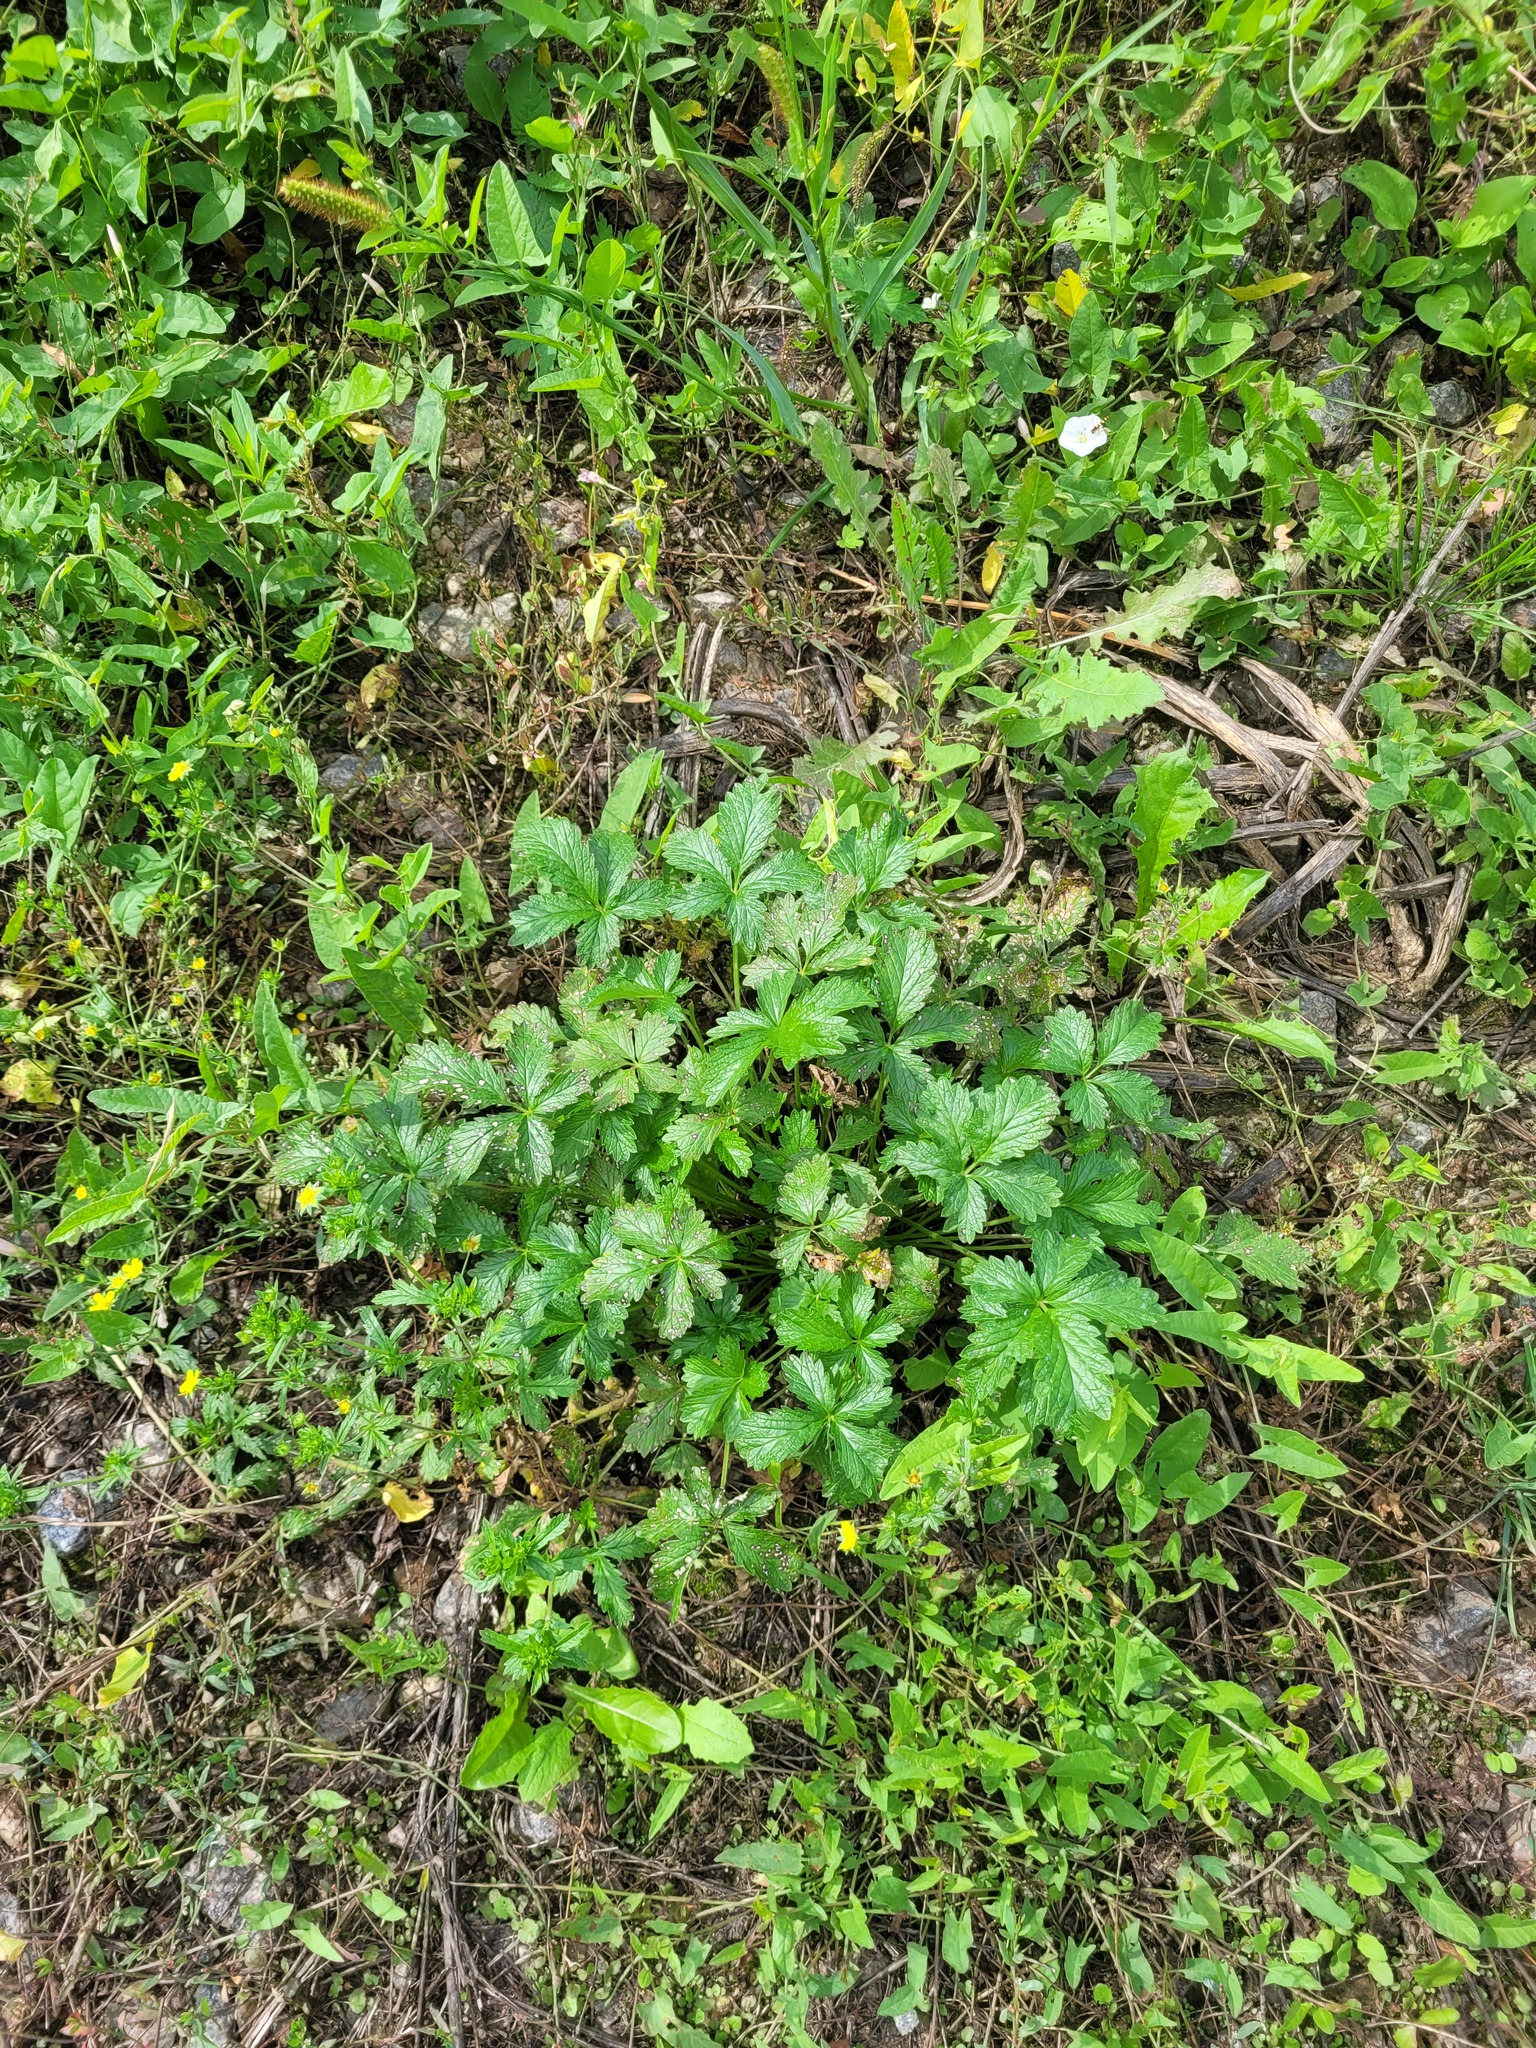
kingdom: Plantae
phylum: Tracheophyta
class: Magnoliopsida
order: Rosales
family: Rosaceae
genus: Potentilla
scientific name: Potentilla intermedia
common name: Downy cinquefoil
